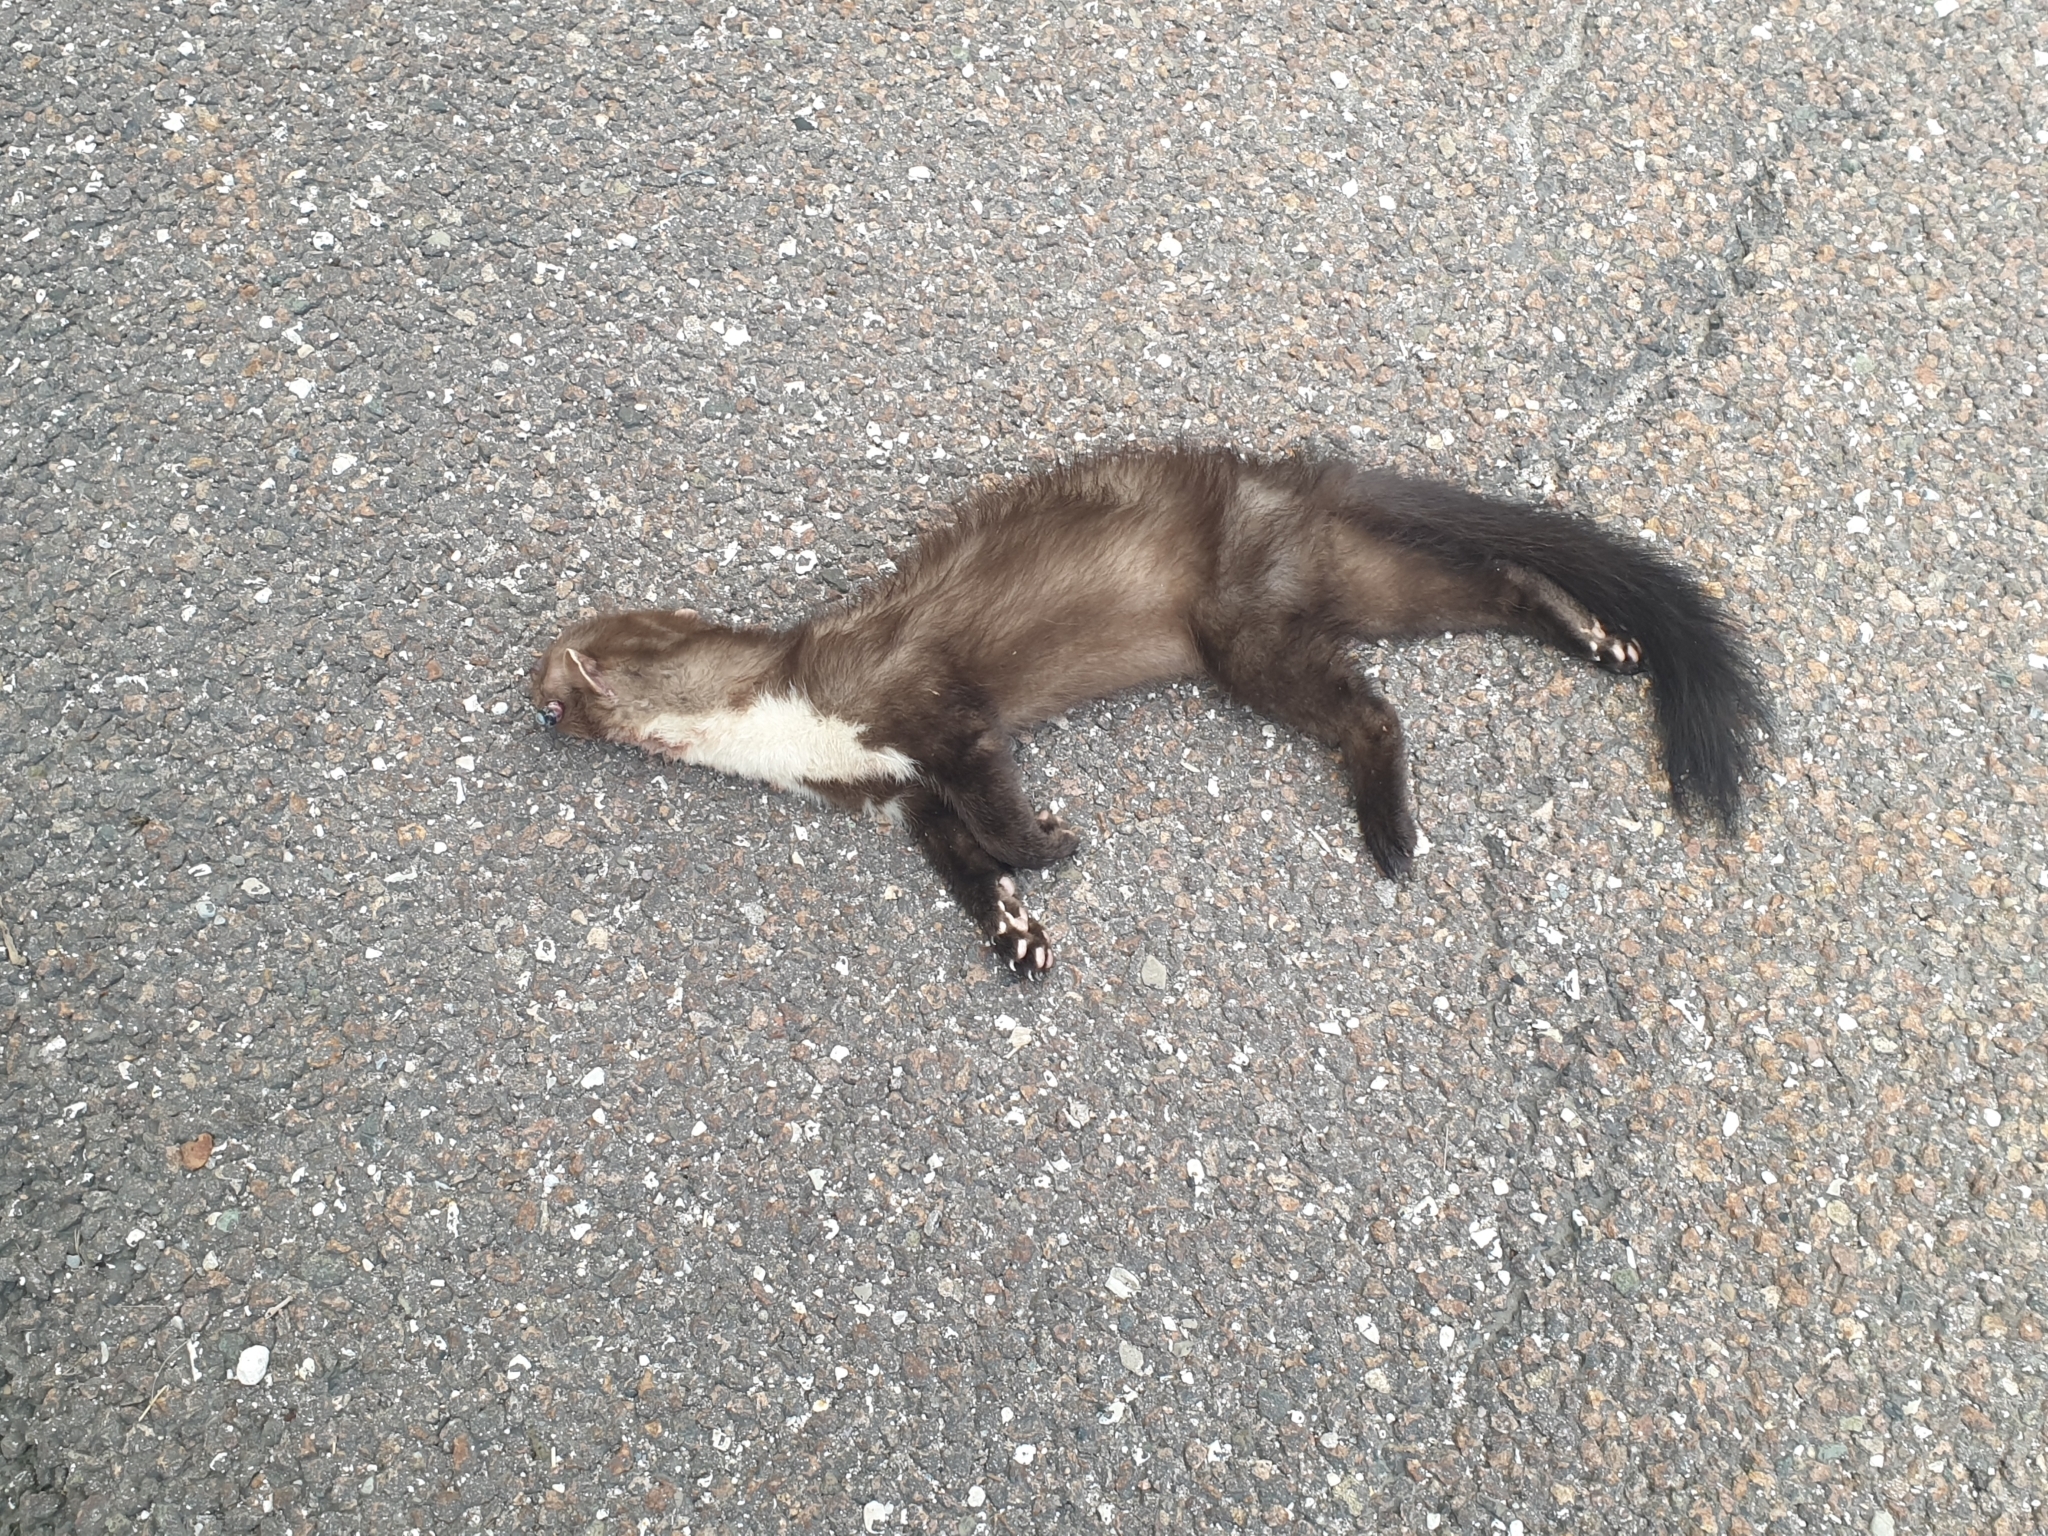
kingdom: Animalia
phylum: Chordata
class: Mammalia
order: Carnivora
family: Mustelidae
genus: Martes
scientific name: Martes foina
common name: Beech marten
